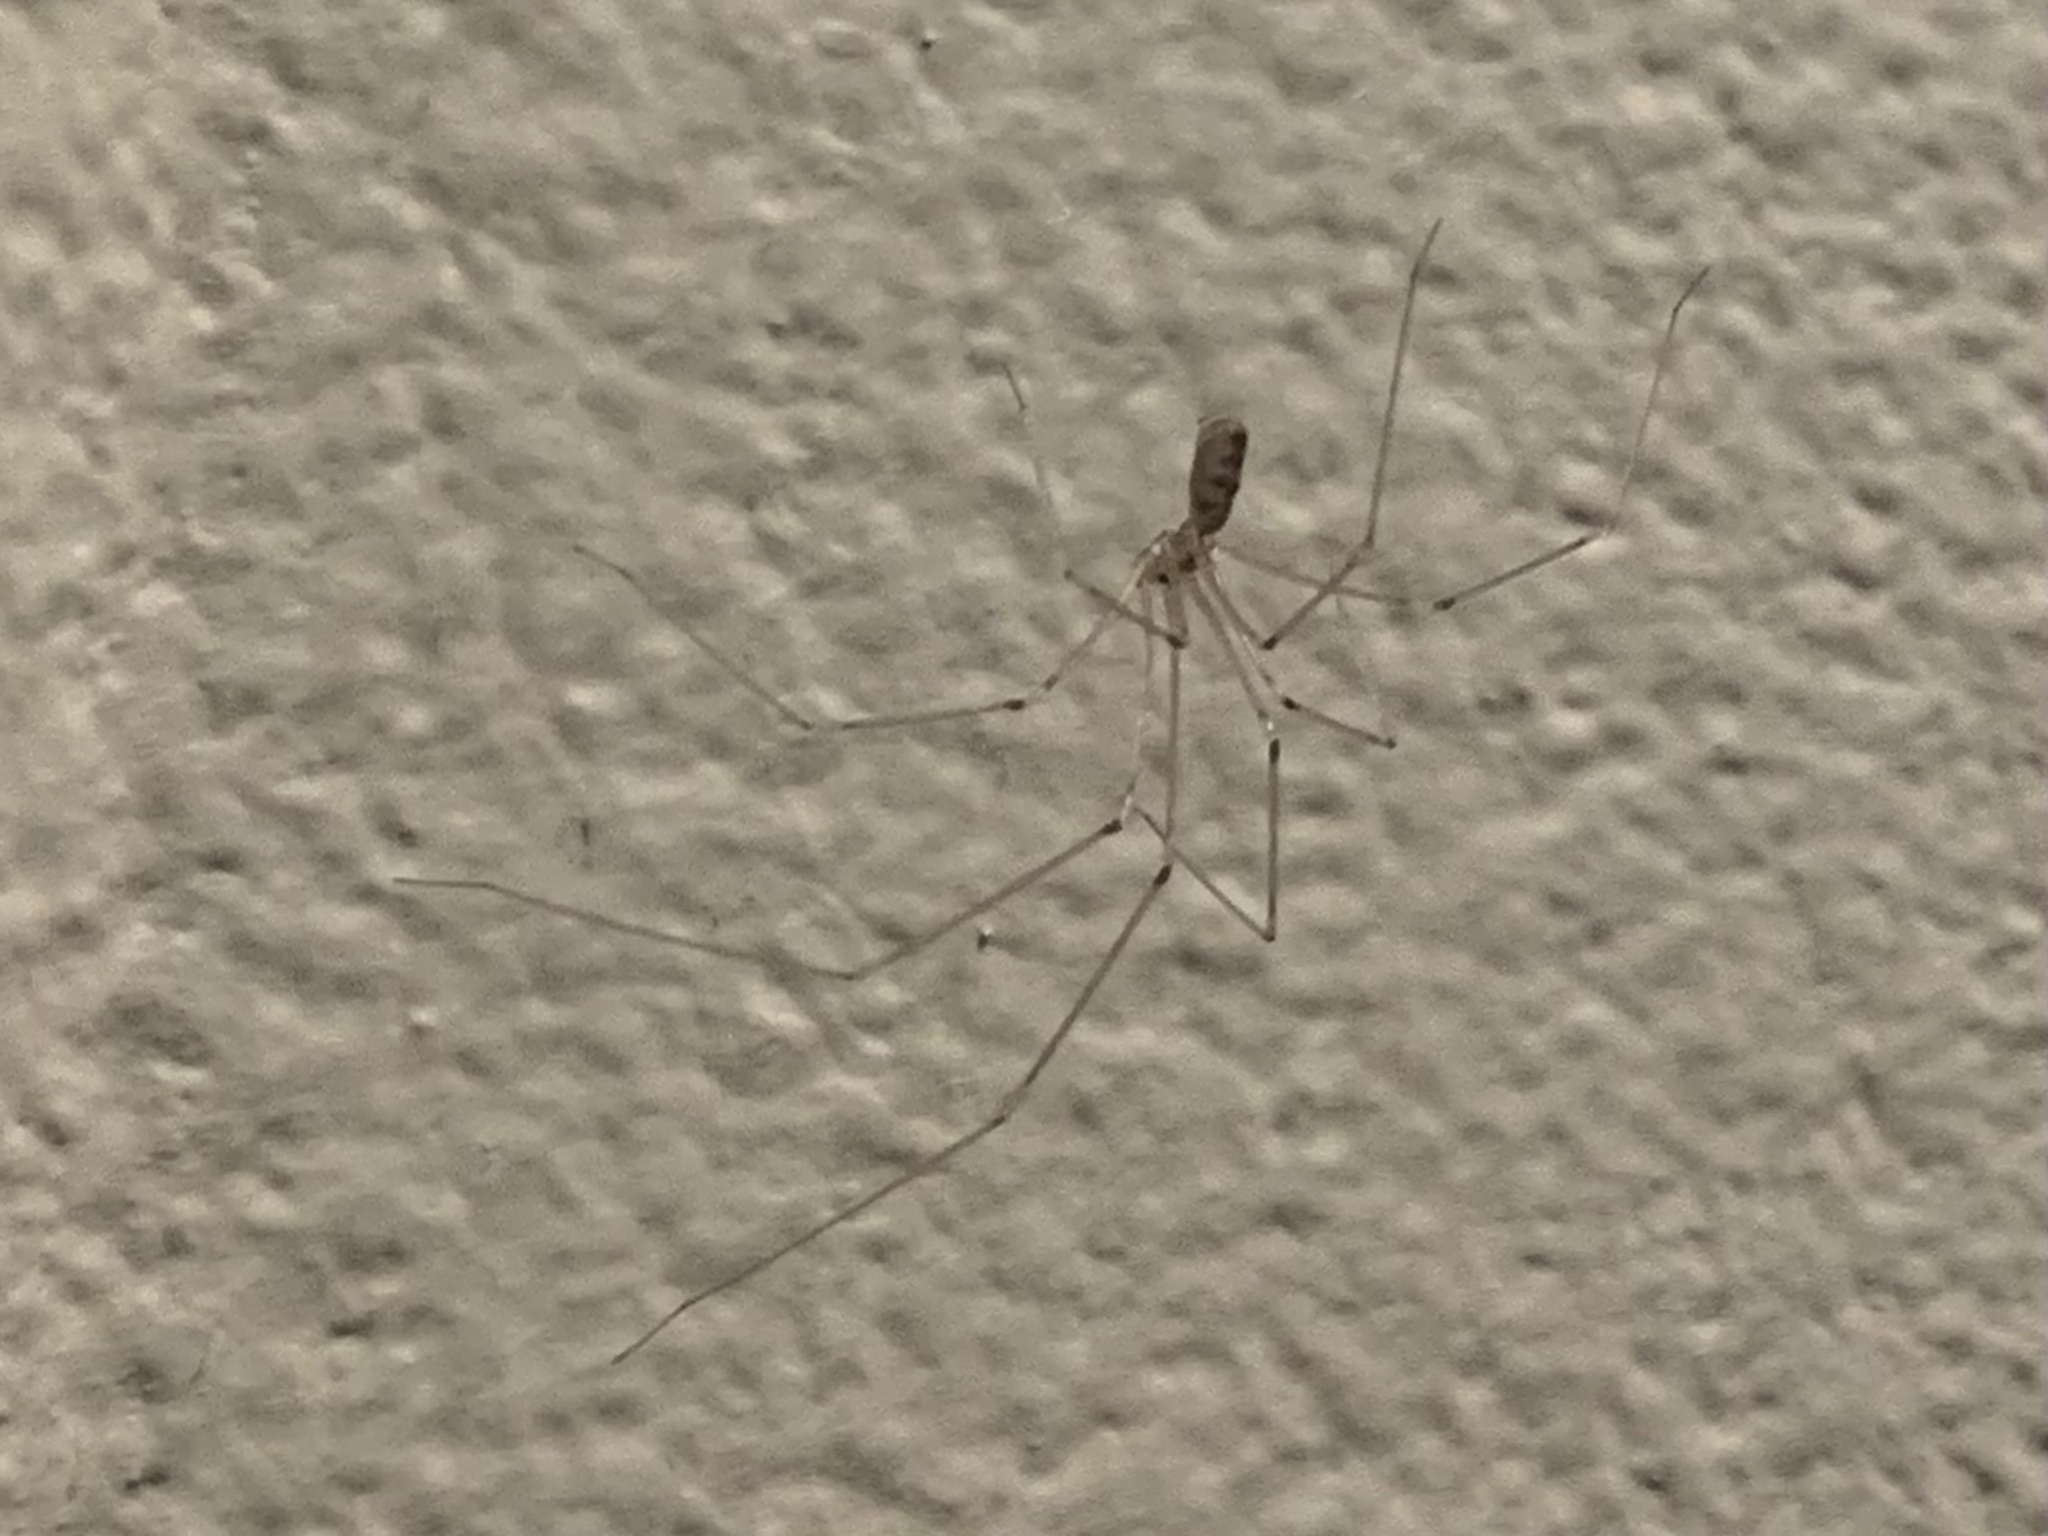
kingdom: Animalia
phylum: Arthropoda
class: Arachnida
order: Araneae
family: Pholcidae
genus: Pholcus
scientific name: Pholcus phalangioides
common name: Longbodied cellar spider
